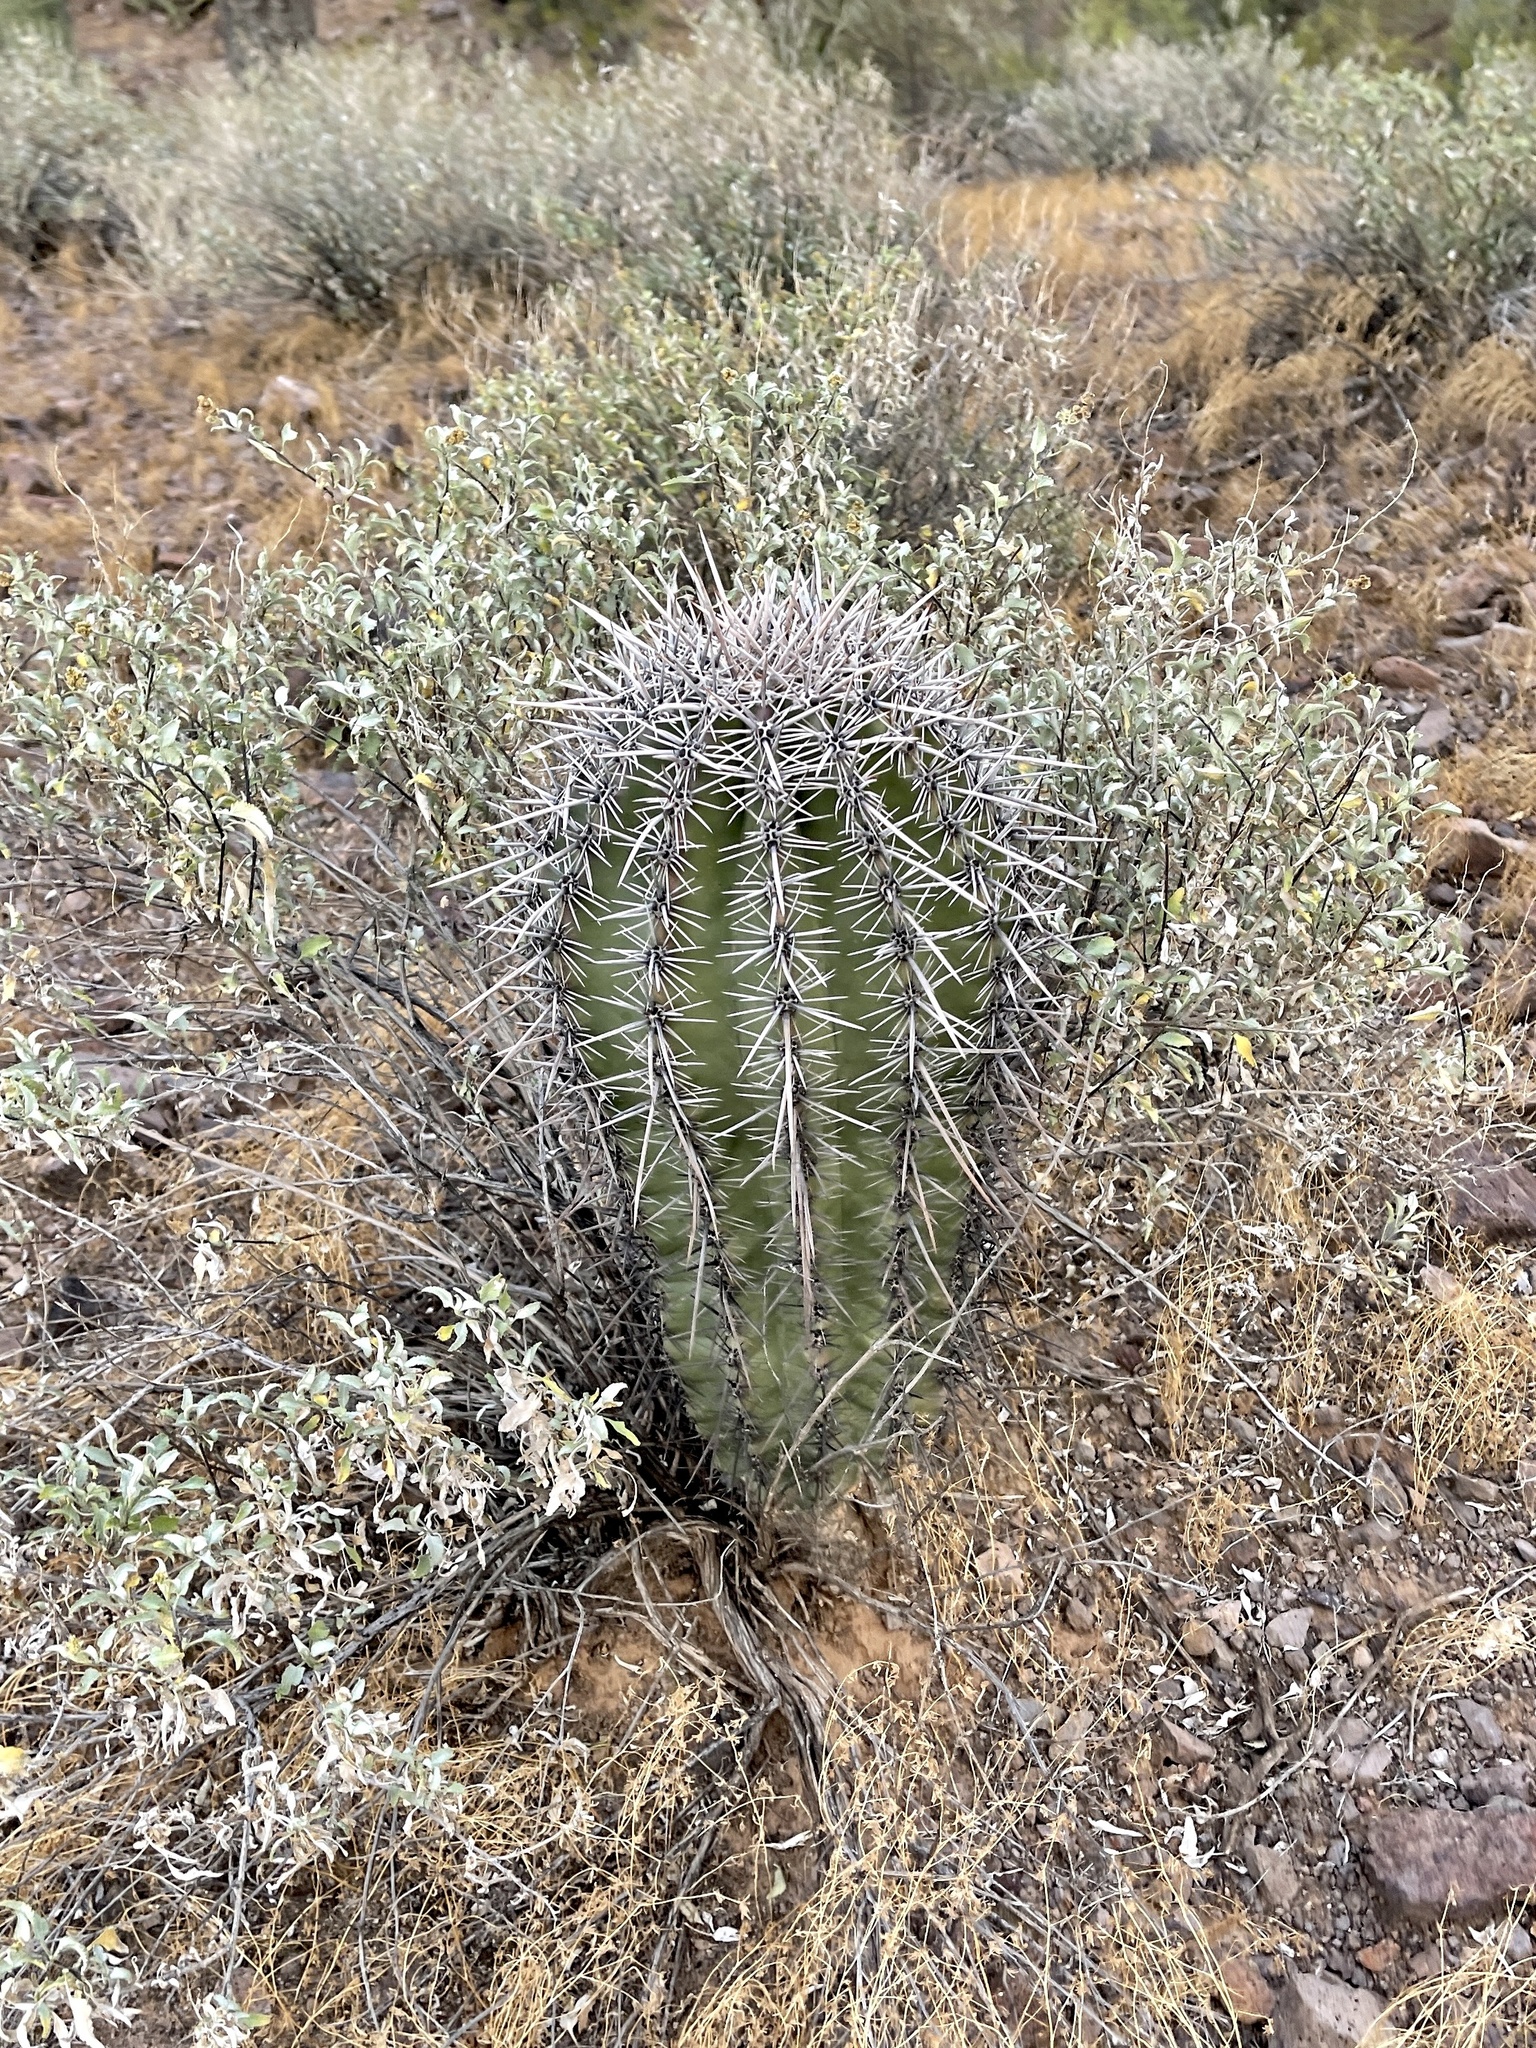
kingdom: Plantae
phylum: Tracheophyta
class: Magnoliopsida
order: Caryophyllales
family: Cactaceae
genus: Carnegiea
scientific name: Carnegiea gigantea
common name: Saguaro
